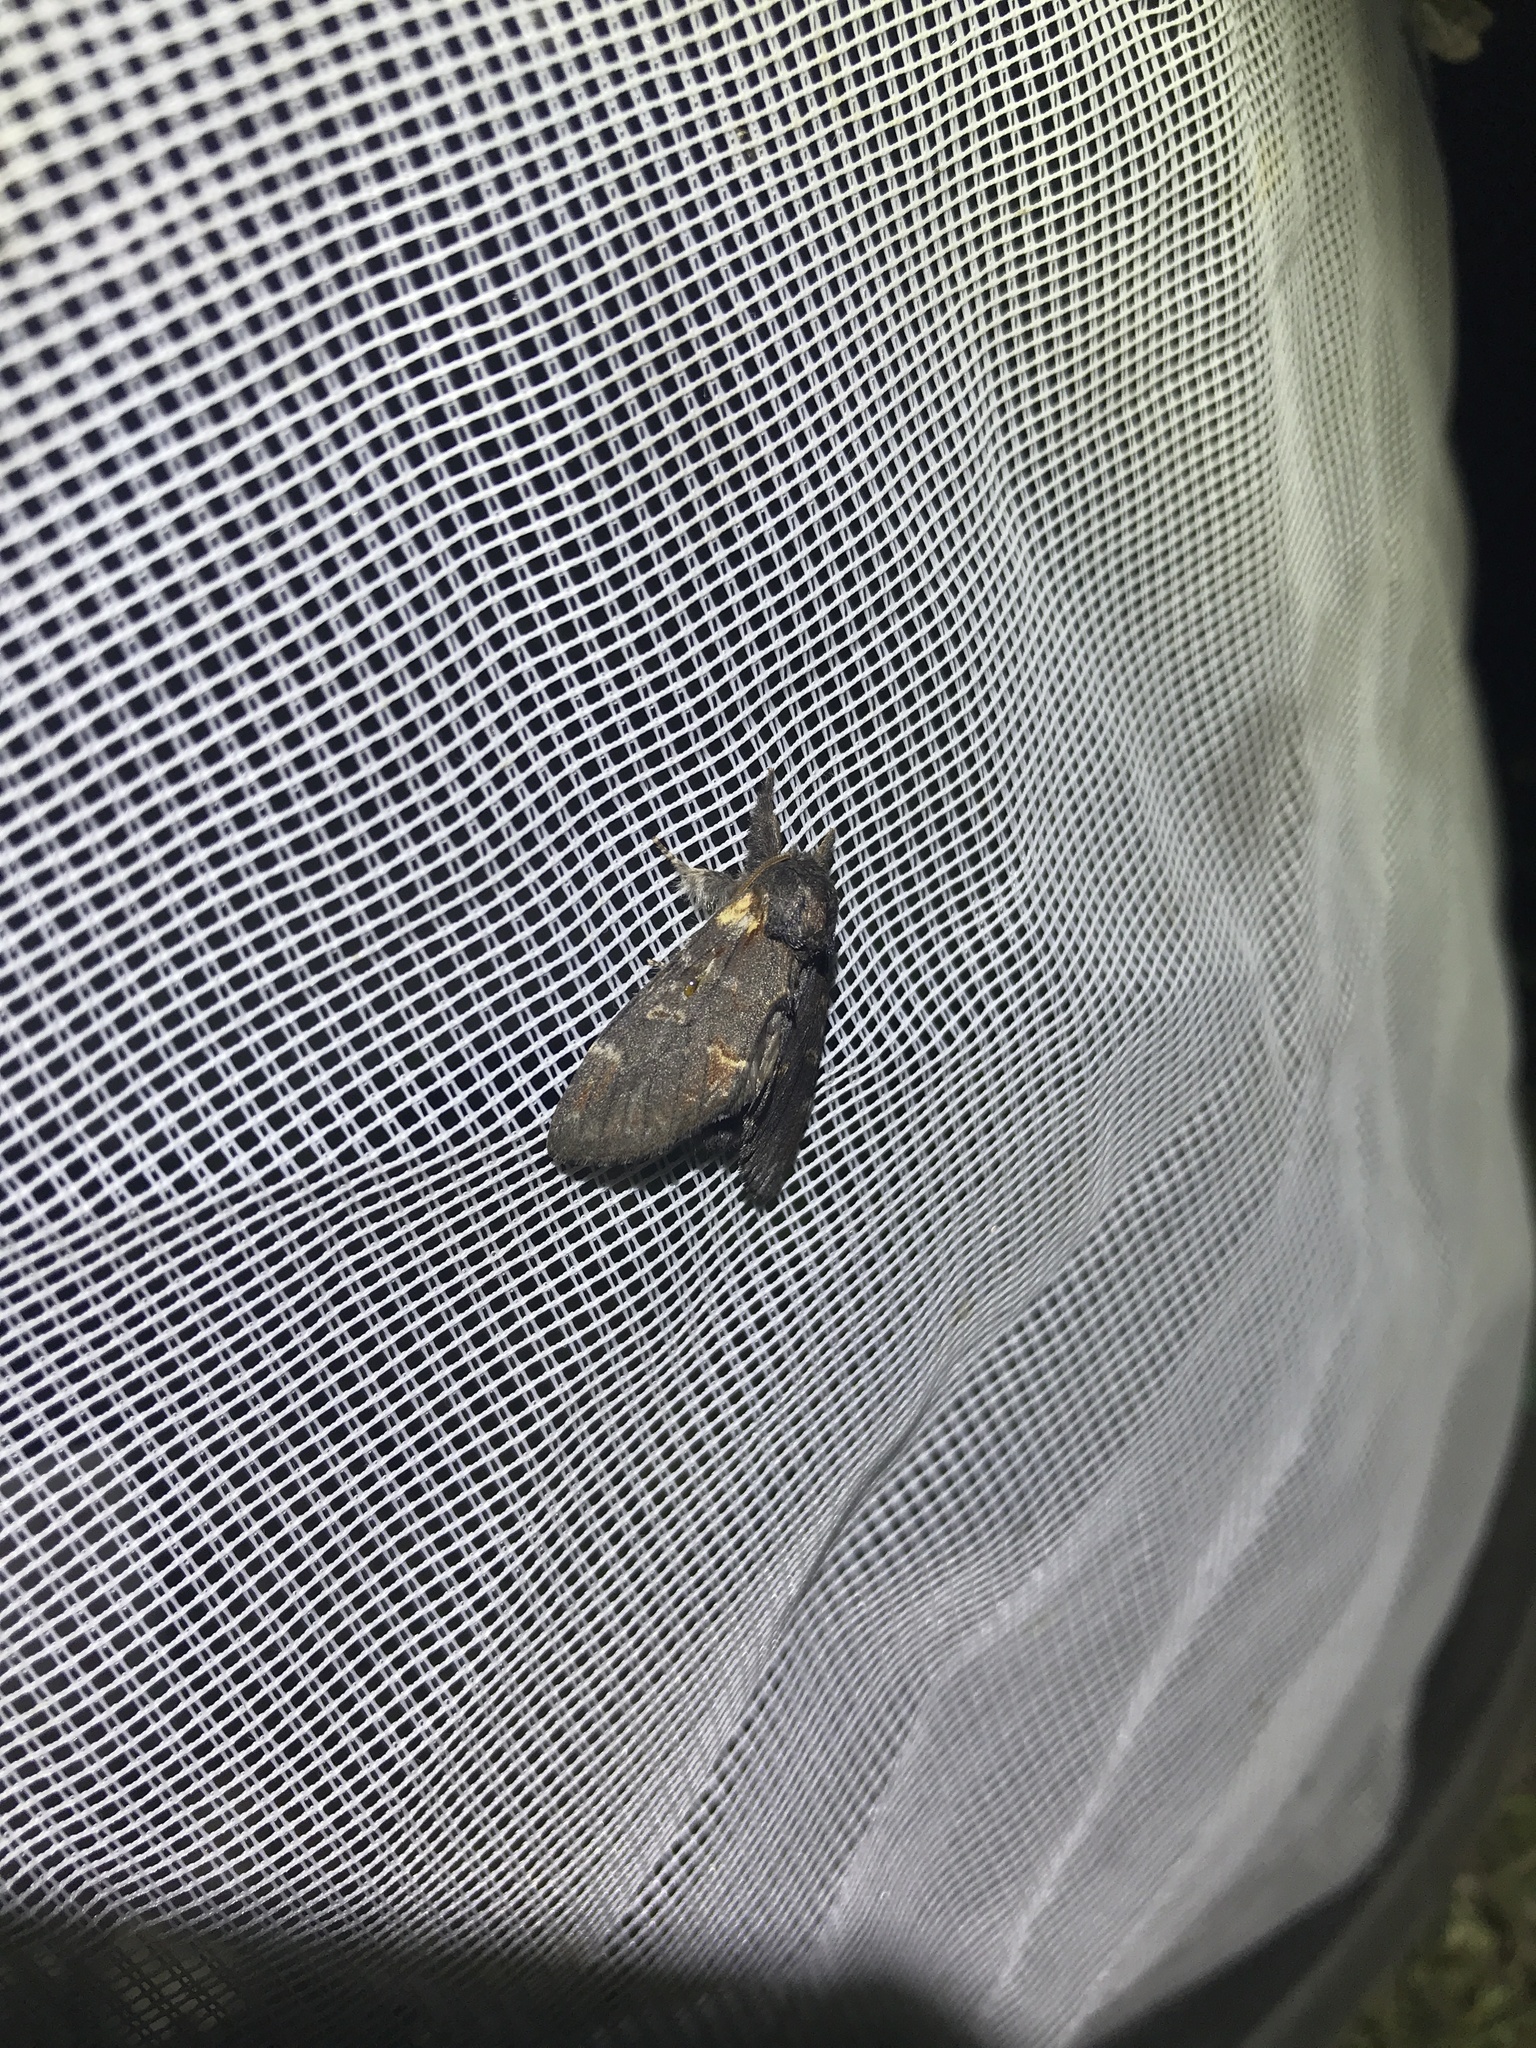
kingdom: Animalia
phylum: Arthropoda
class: Insecta
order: Lepidoptera
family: Notodontidae
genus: Notodonta
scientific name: Notodonta dromedarius
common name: Iron prominent
